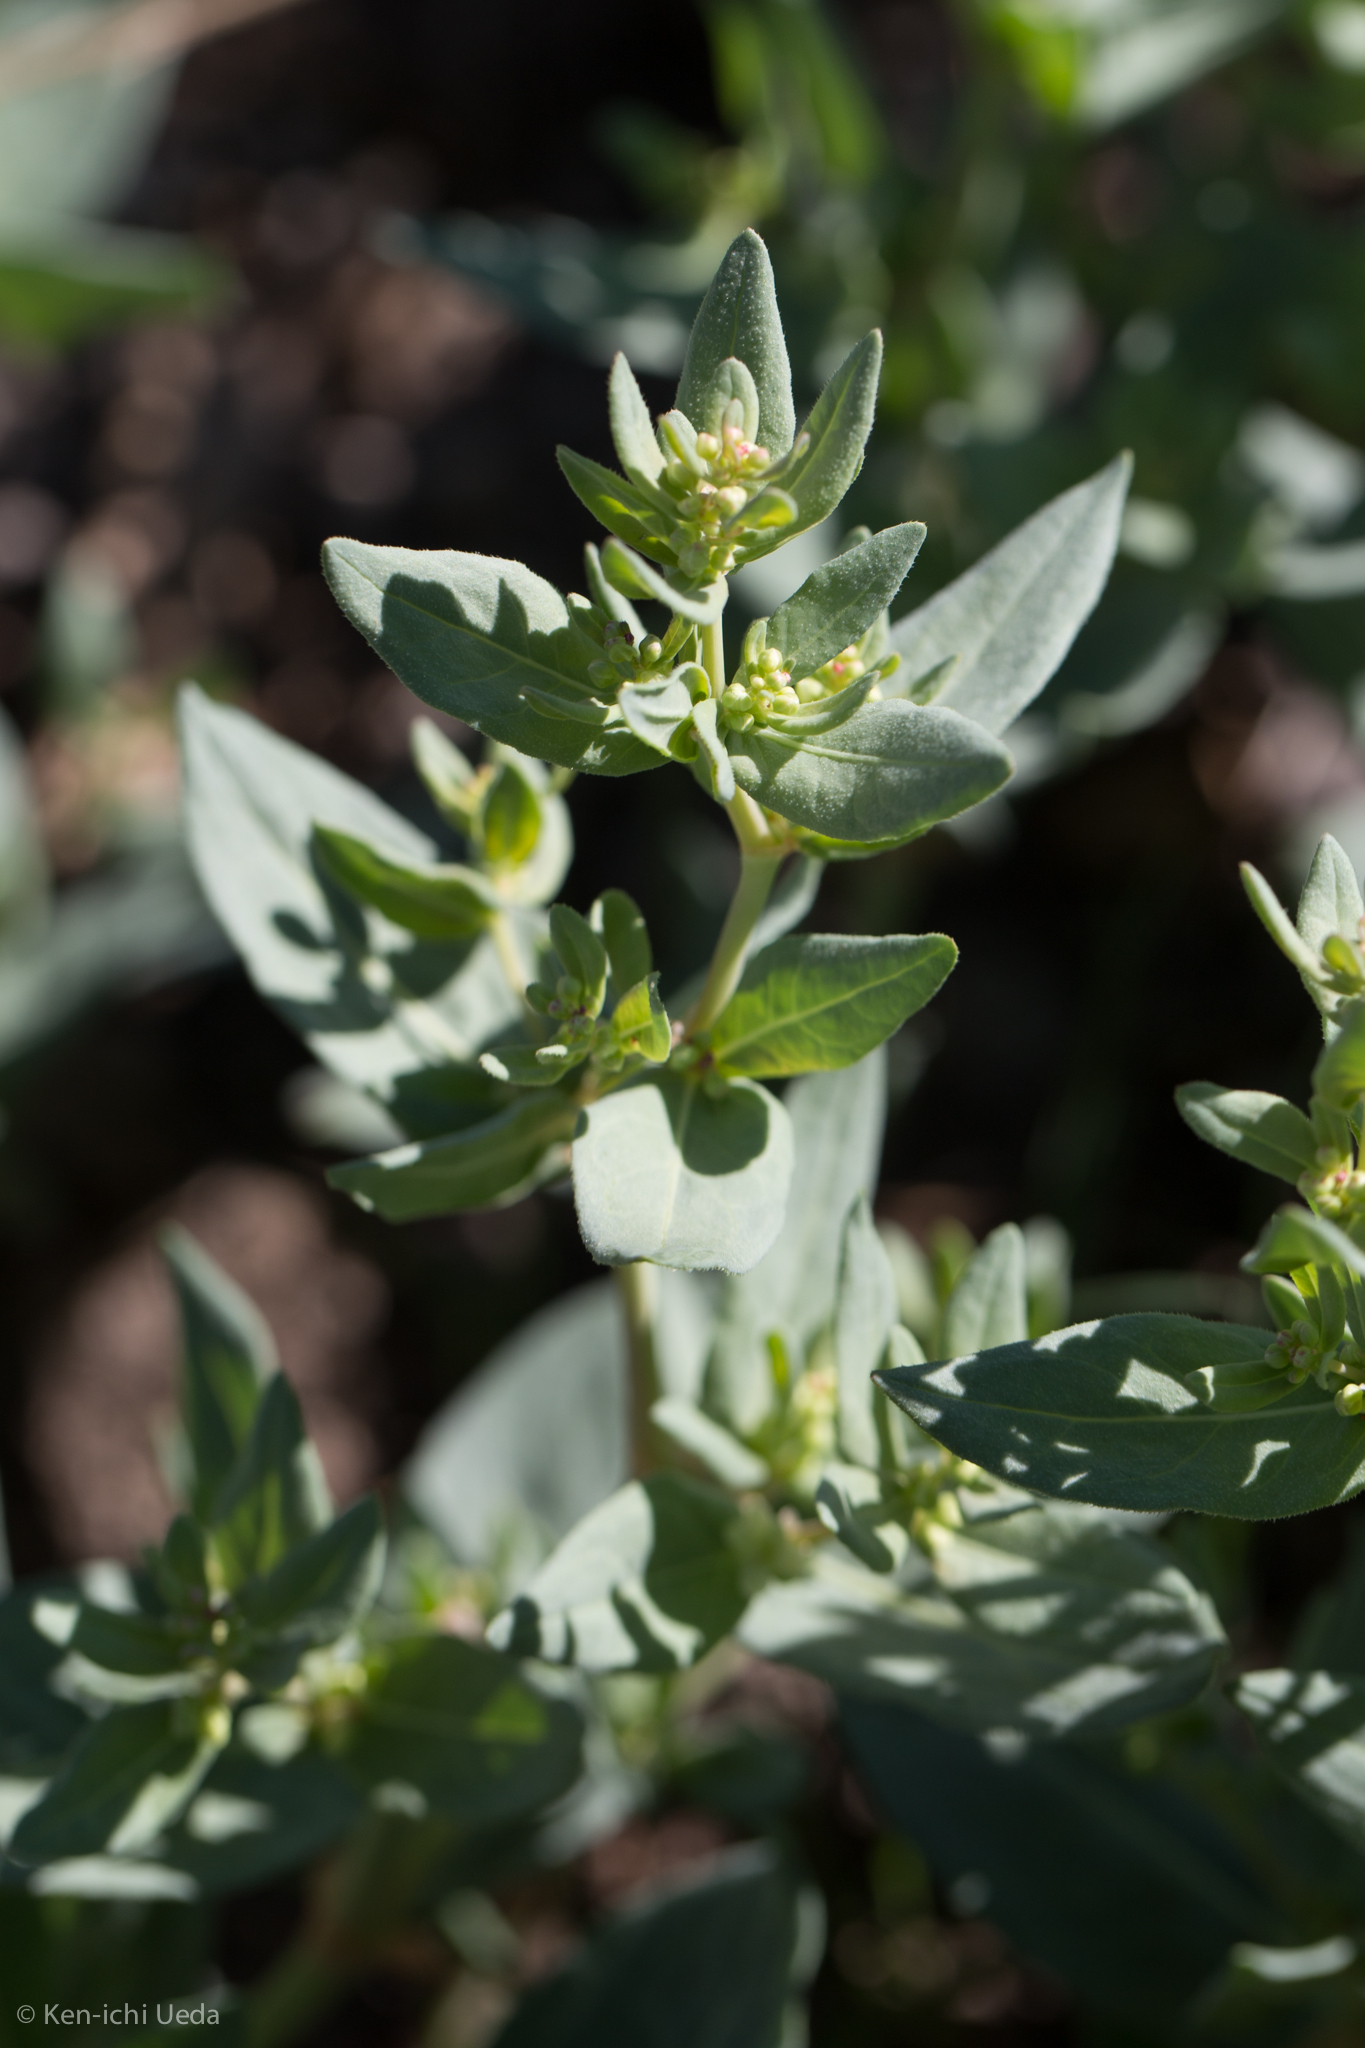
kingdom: Plantae
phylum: Tracheophyta
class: Magnoliopsida
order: Caryophyllales
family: Polygonaceae
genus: Koenigia
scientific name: Koenigia davisiae
